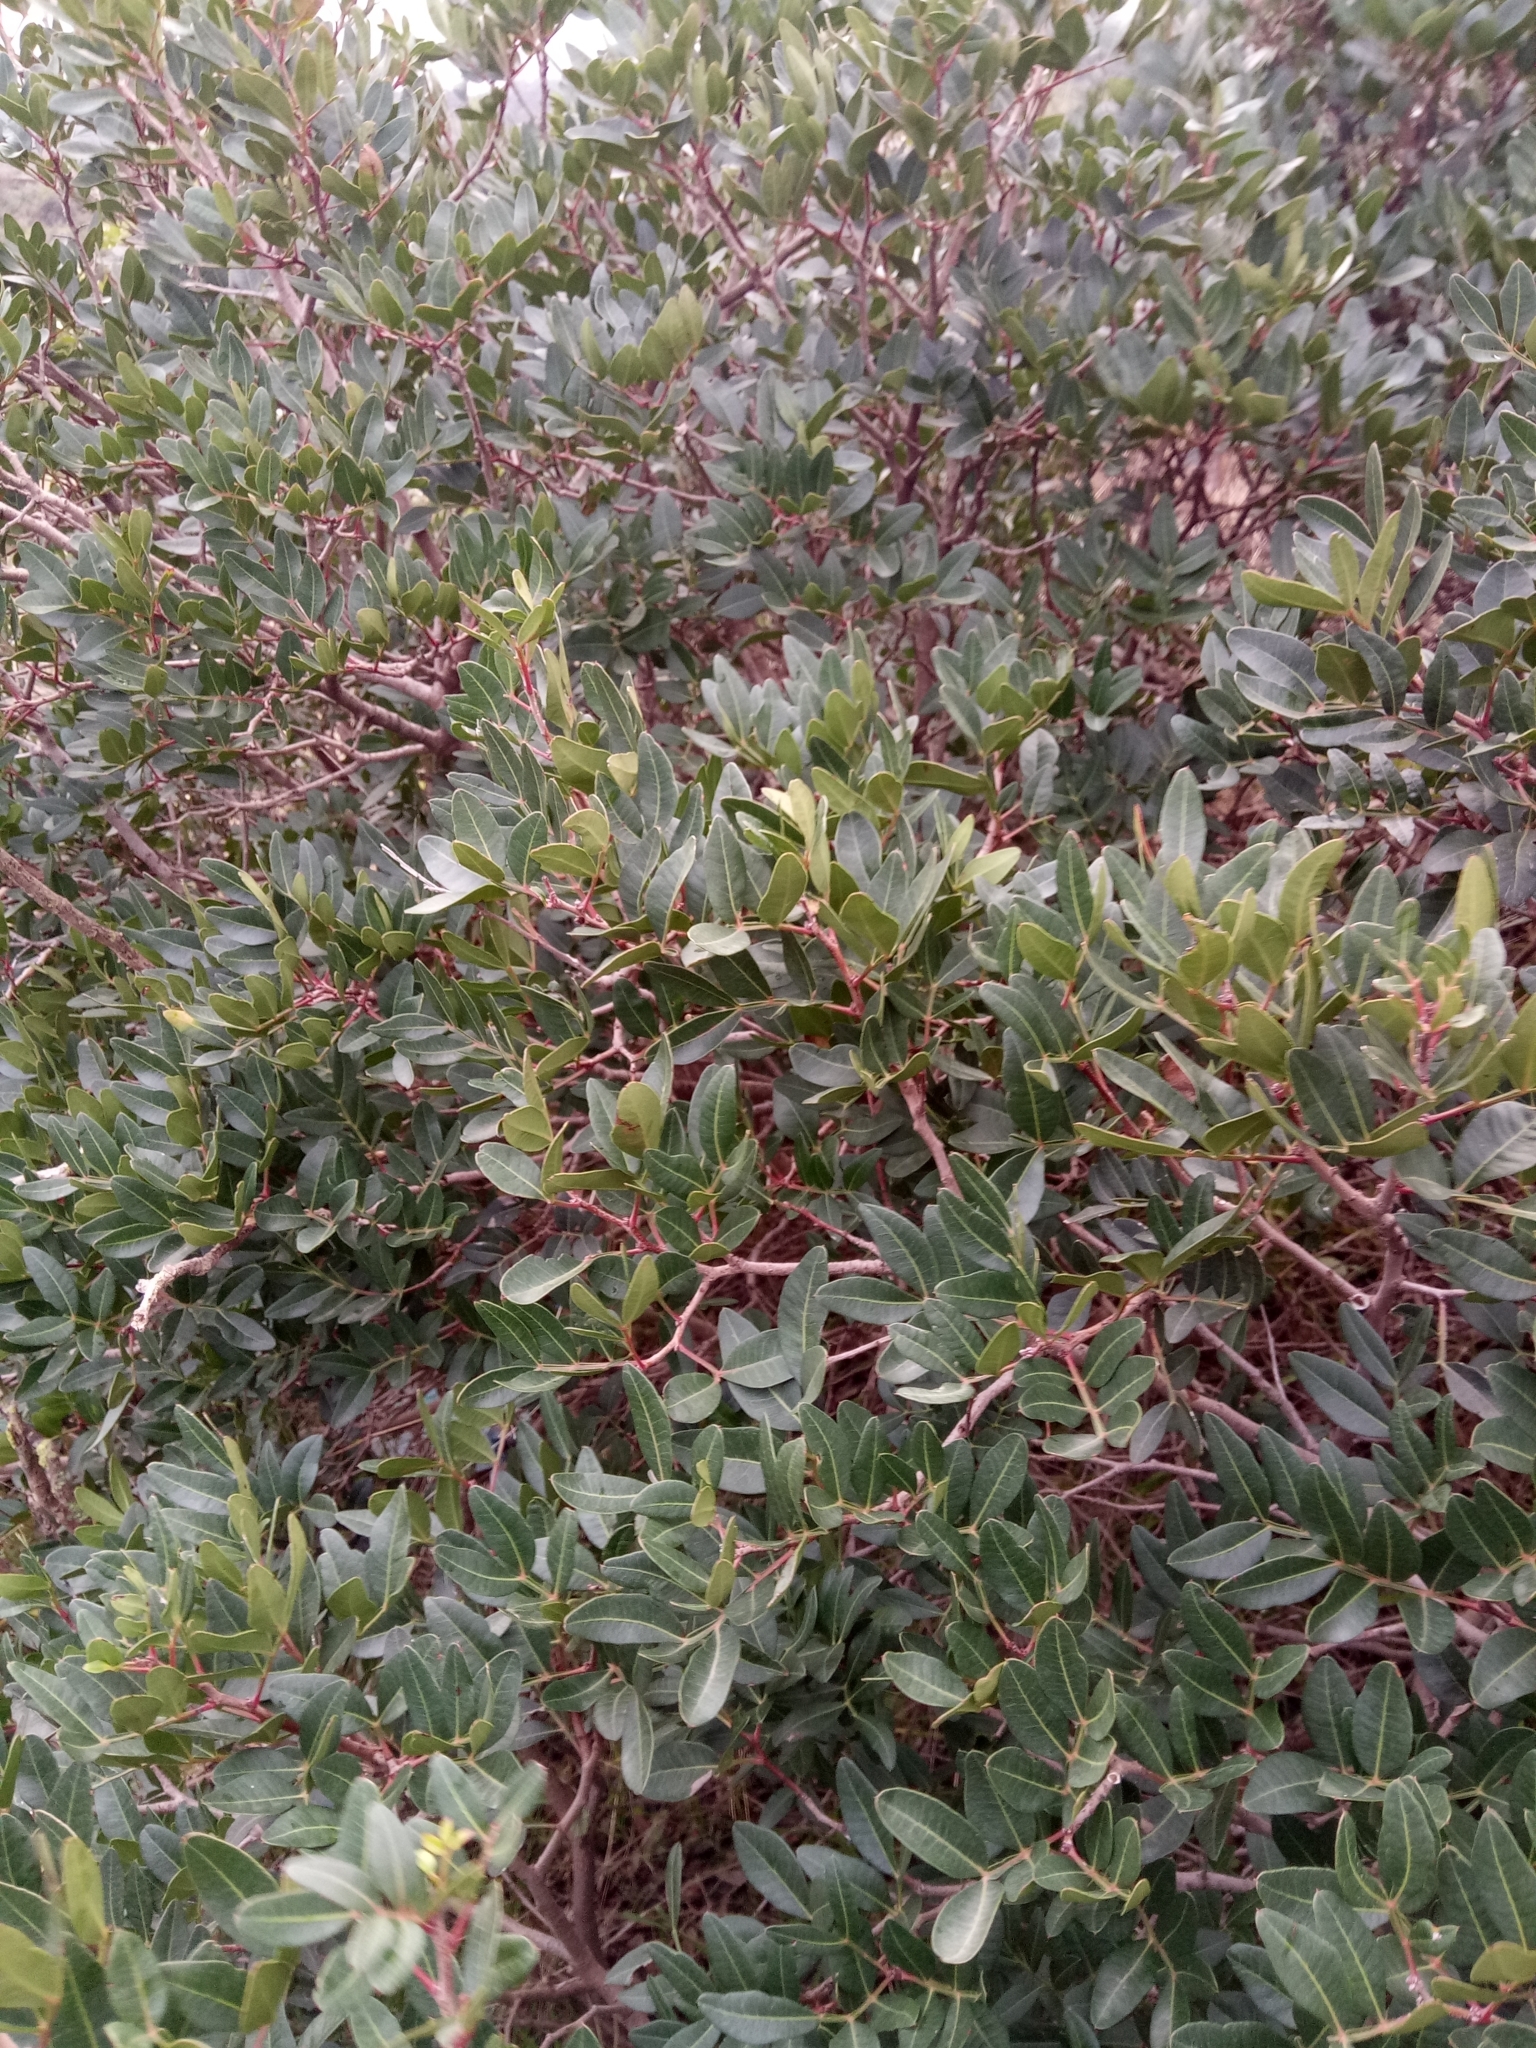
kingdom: Plantae
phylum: Tracheophyta
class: Magnoliopsida
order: Sapindales
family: Anacardiaceae
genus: Pistacia
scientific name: Pistacia lentiscus
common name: Lentisk
